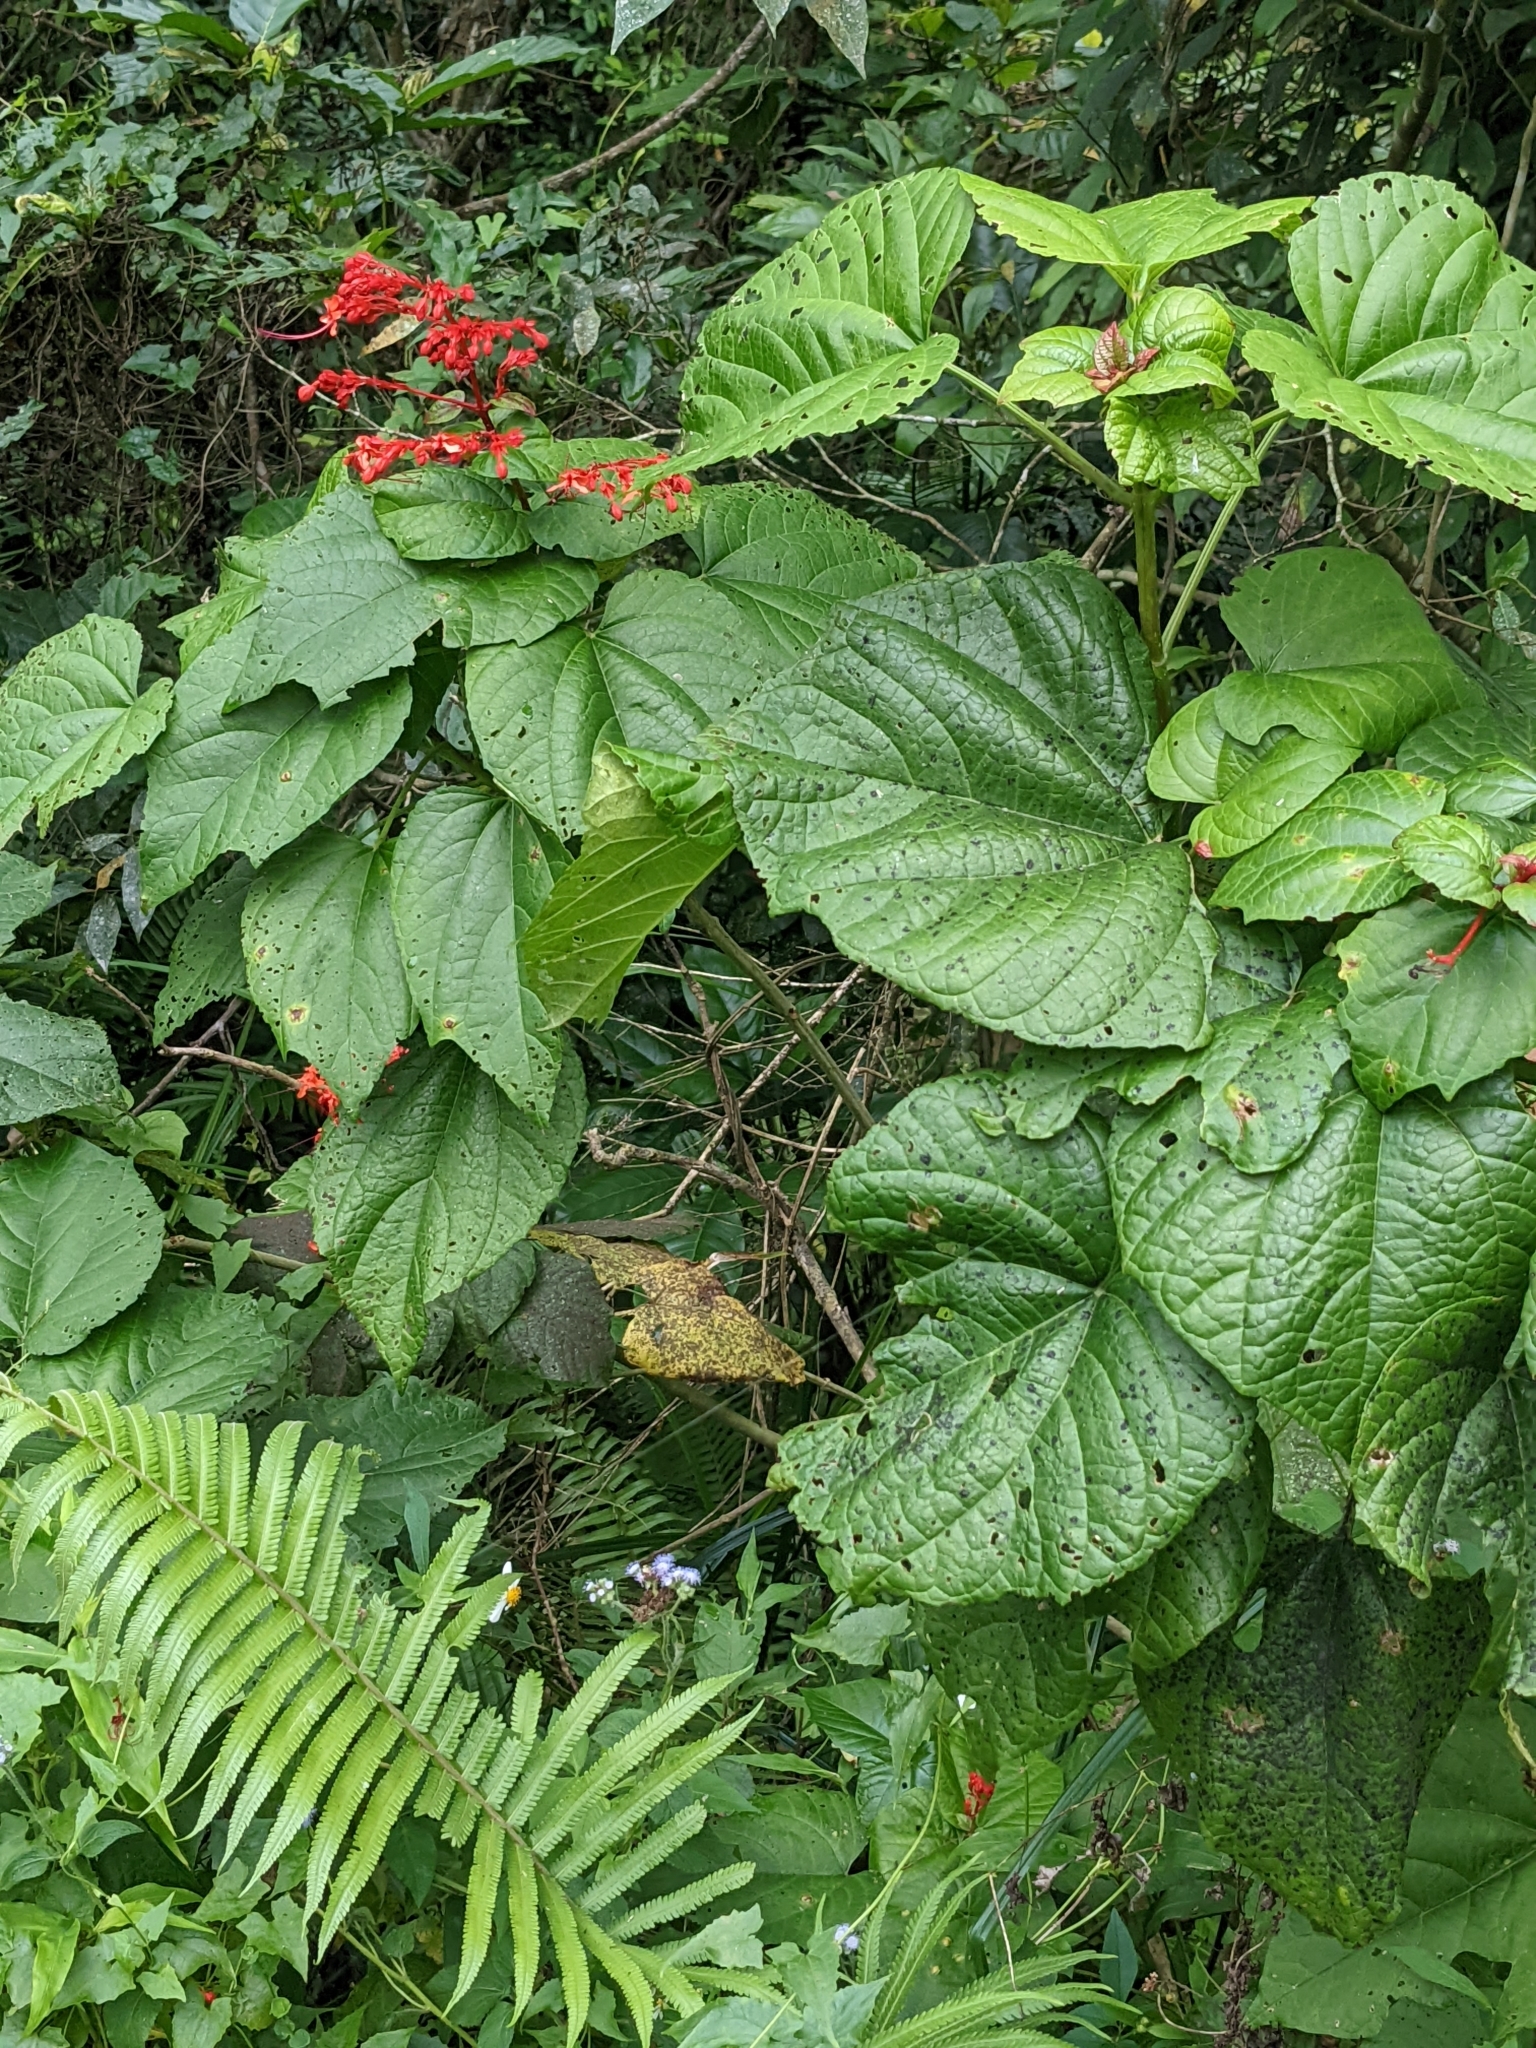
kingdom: Plantae
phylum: Tracheophyta
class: Magnoliopsida
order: Lamiales
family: Lamiaceae
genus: Clerodendrum
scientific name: Clerodendrum japonicum
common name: Japanese glorybower
